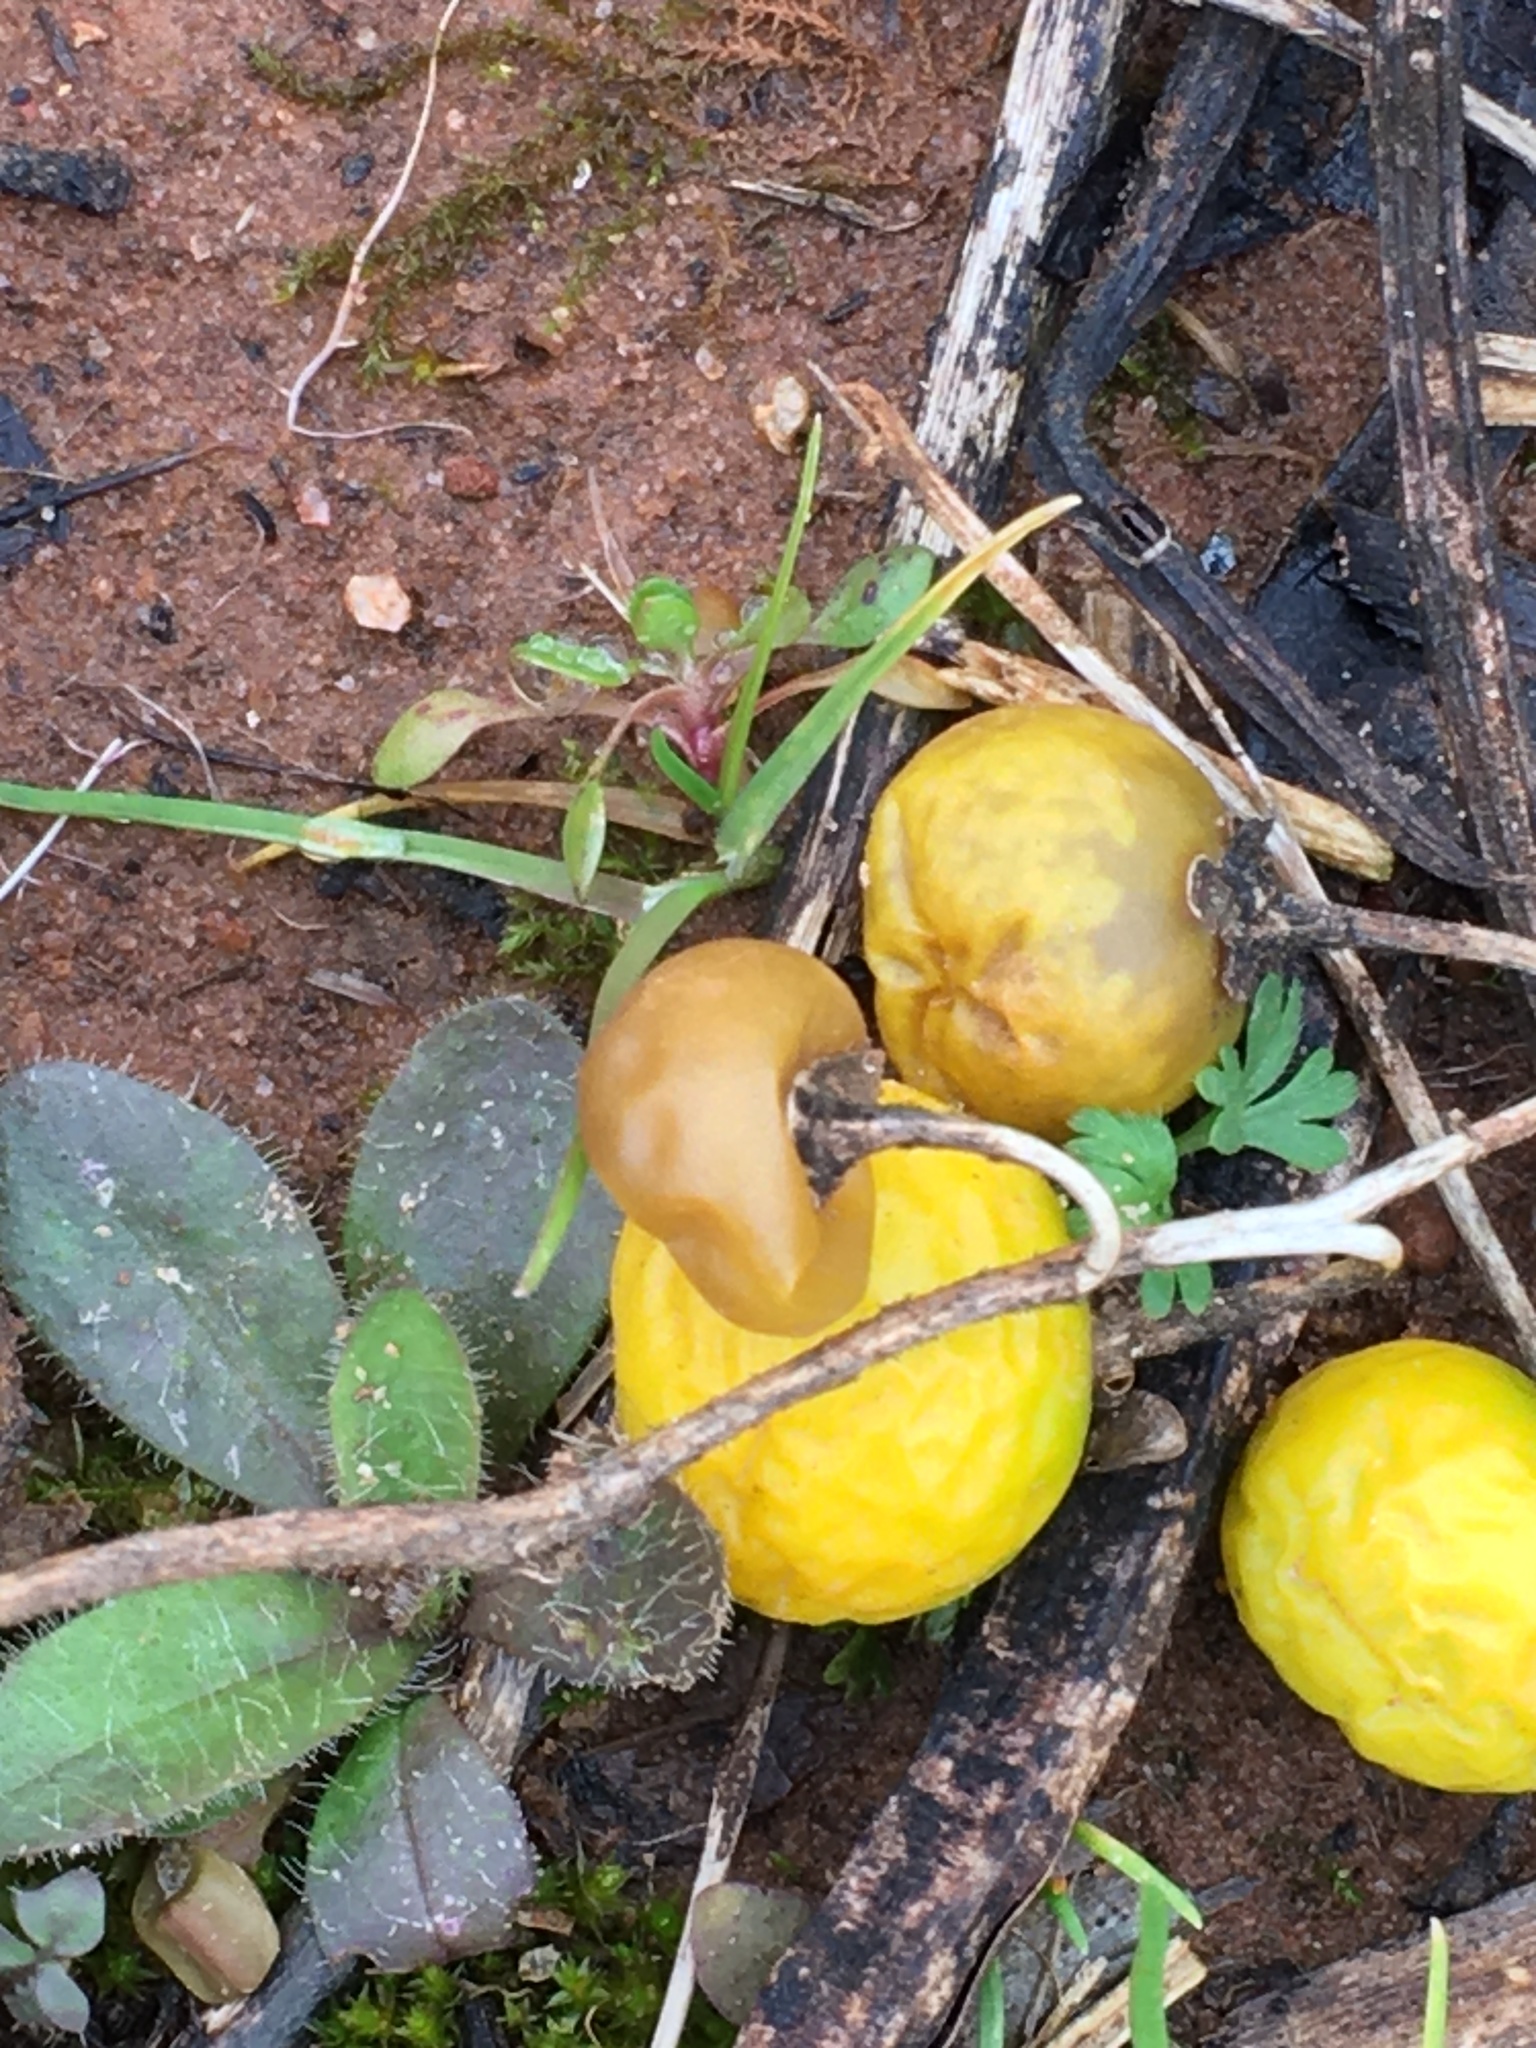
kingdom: Plantae
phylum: Tracheophyta
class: Magnoliopsida
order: Solanales
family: Solanaceae
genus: Solanum
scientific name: Solanum carolinense
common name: Horse-nettle
